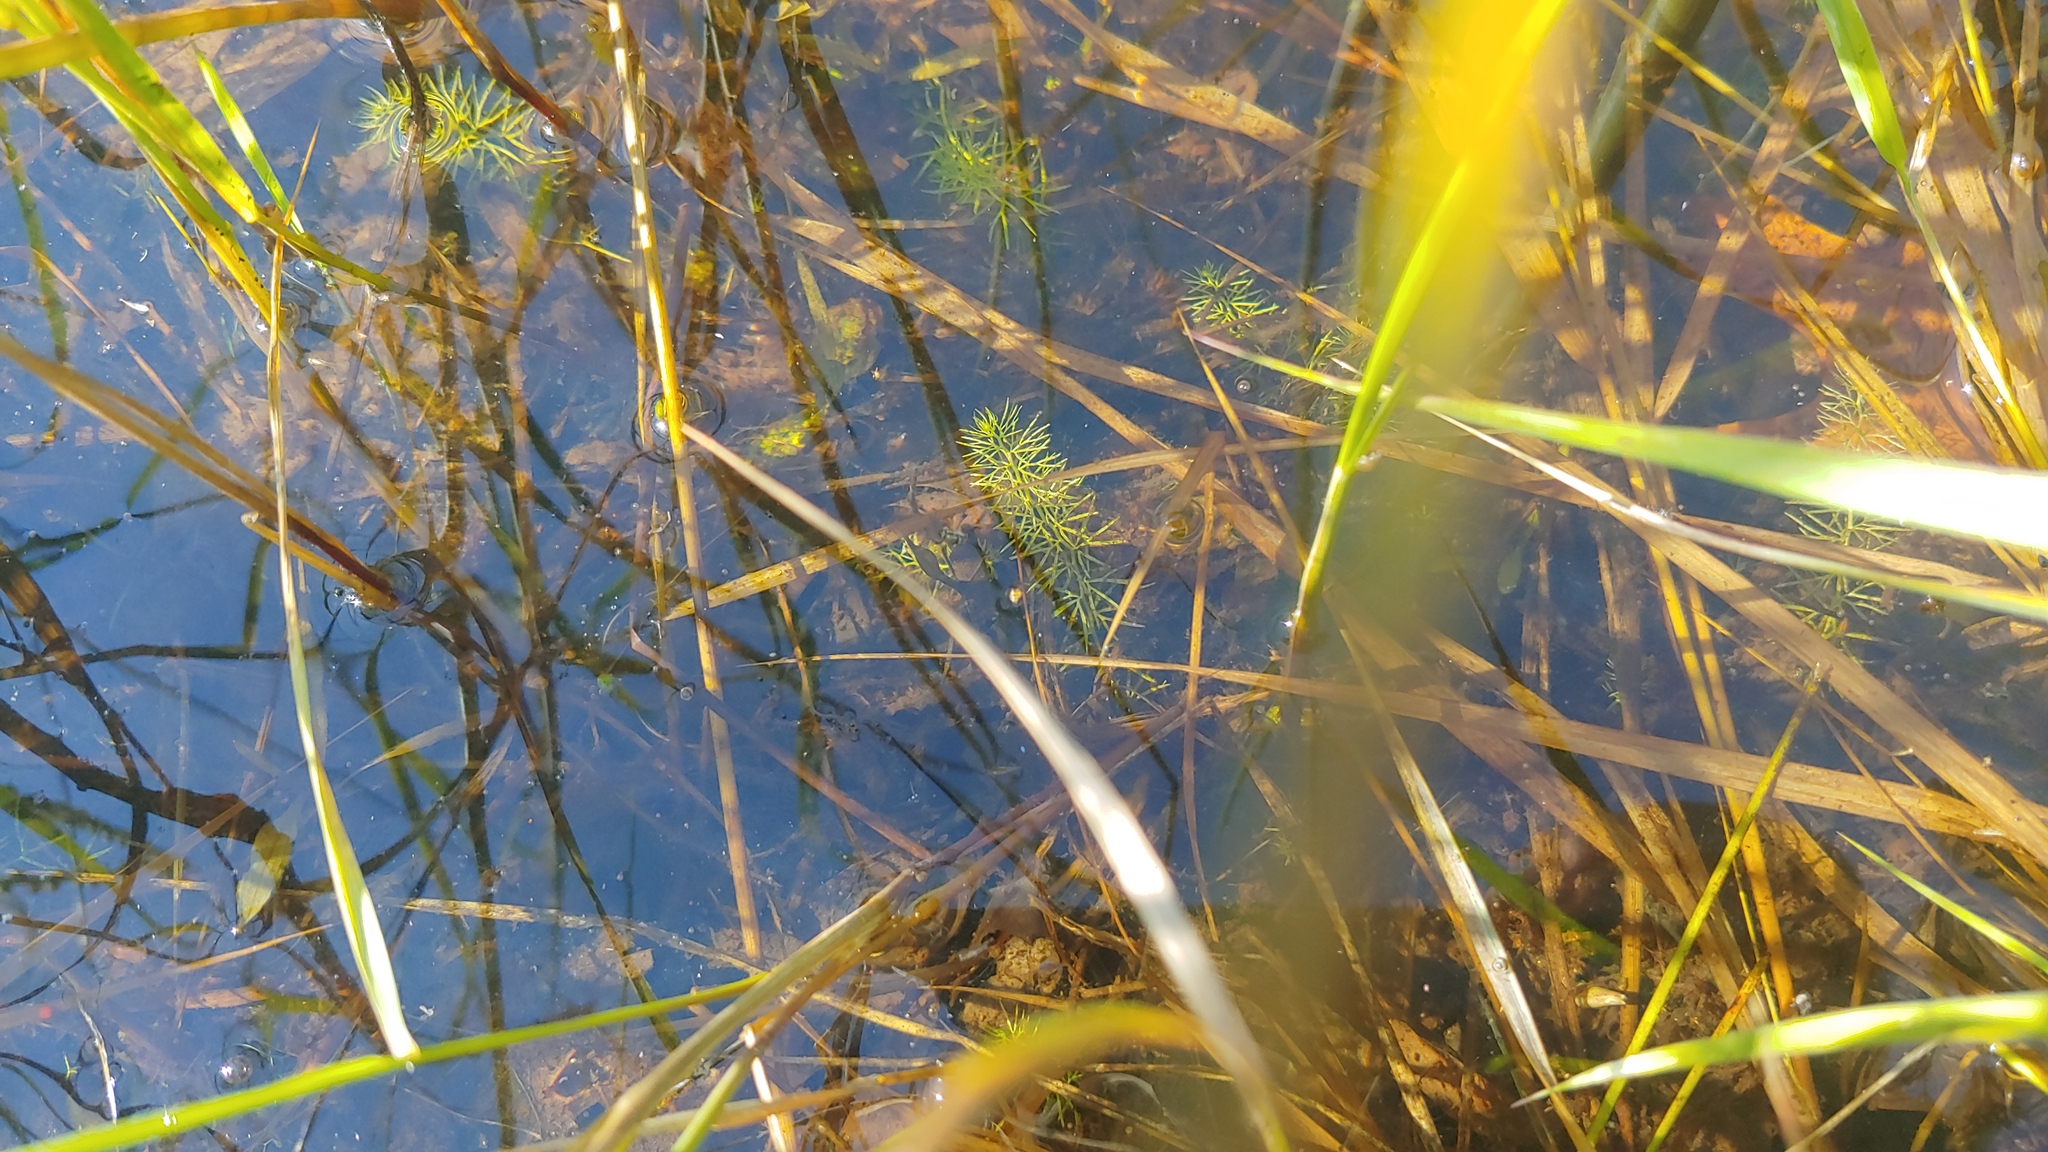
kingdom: Plantae
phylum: Tracheophyta
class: Magnoliopsida
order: Lamiales
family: Lentibulariaceae
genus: Utricularia
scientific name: Utricularia intermedia
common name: Intermediate bladderwort
